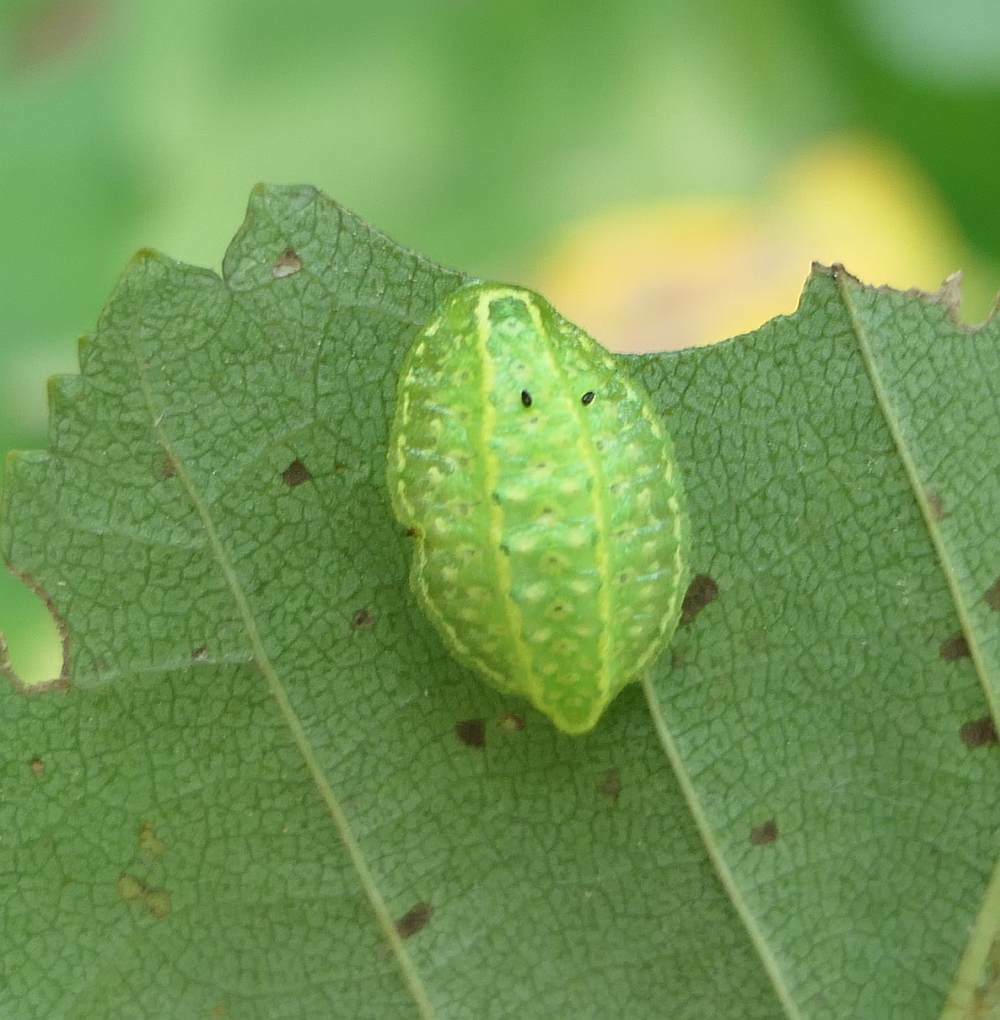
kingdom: Animalia
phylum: Arthropoda
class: Insecta
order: Lepidoptera
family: Limacodidae
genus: Lithacodes
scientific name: Lithacodes fasciola
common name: Yellow-shouldered slug moth
